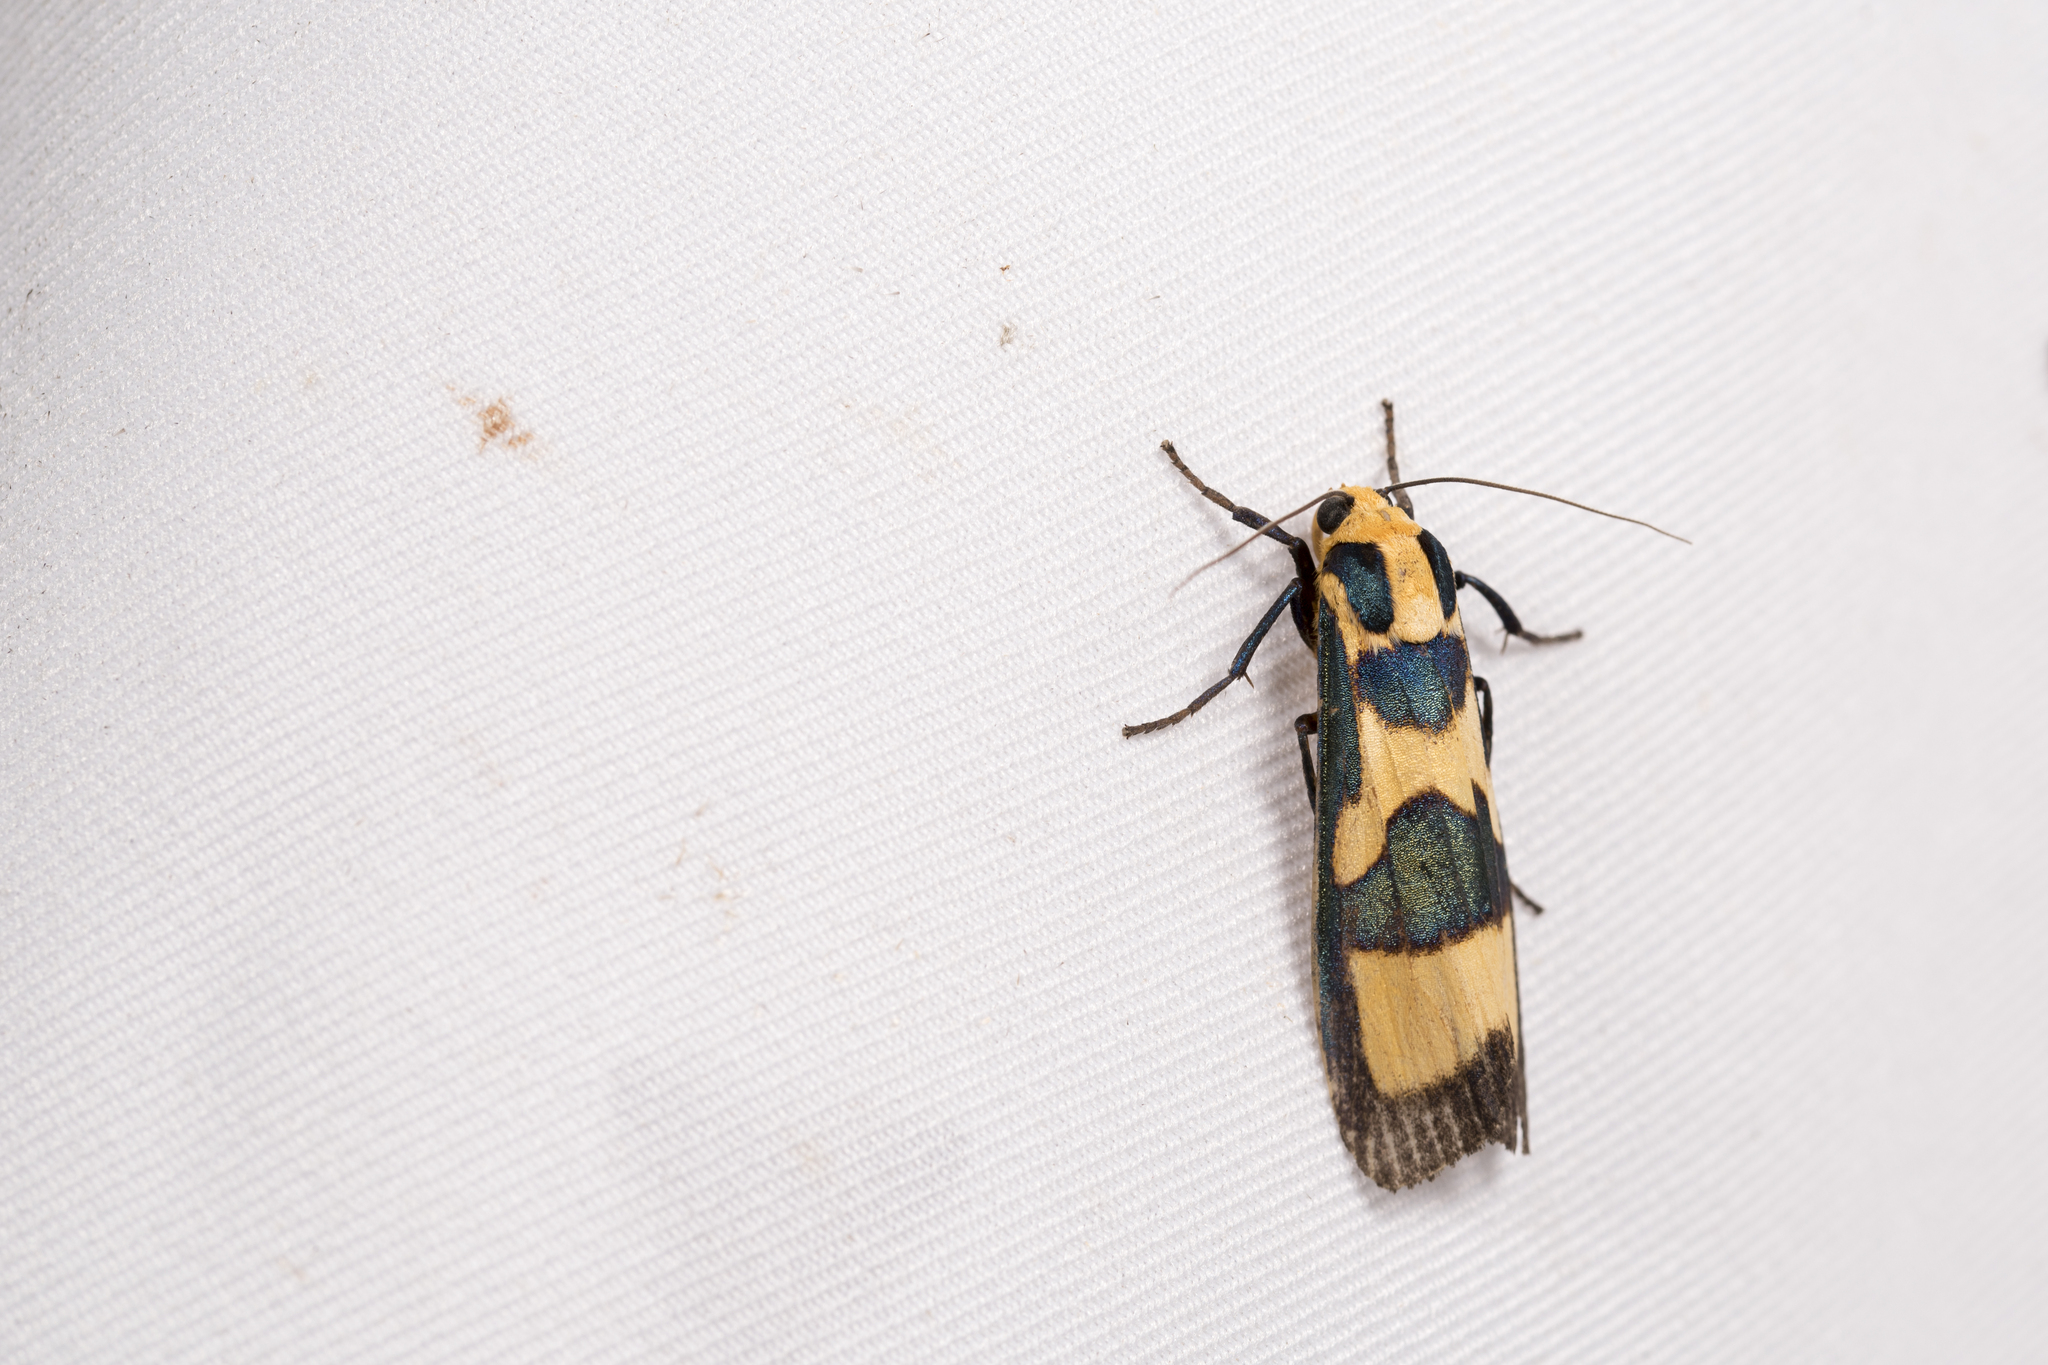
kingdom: Animalia
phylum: Arthropoda
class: Insecta
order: Lepidoptera
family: Erebidae
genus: Chrysaeglia
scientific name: Chrysaeglia magnifica
